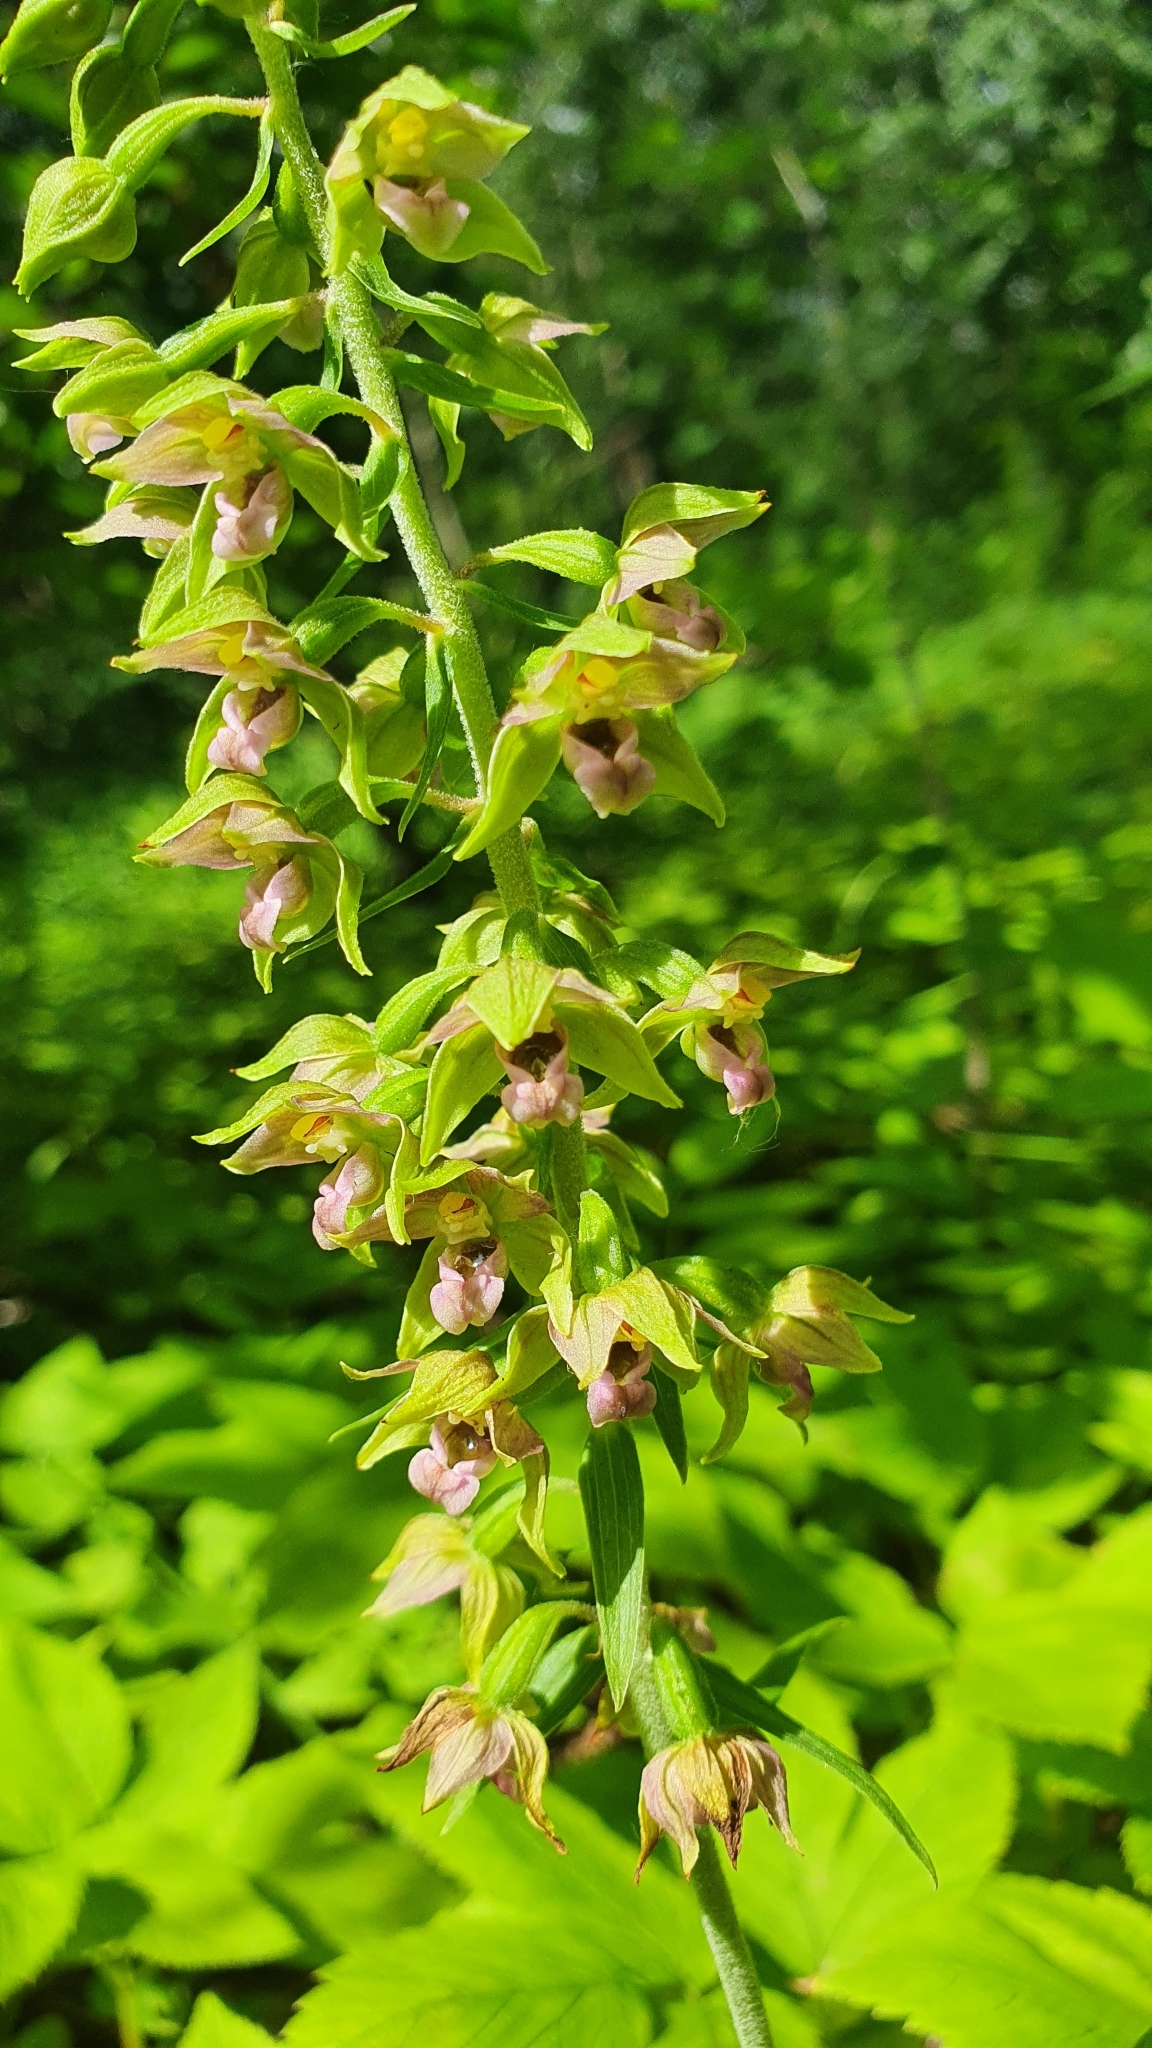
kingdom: Plantae
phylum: Tracheophyta
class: Liliopsida
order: Asparagales
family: Orchidaceae
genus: Epipactis
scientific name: Epipactis helleborine
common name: Broad-leaved helleborine
